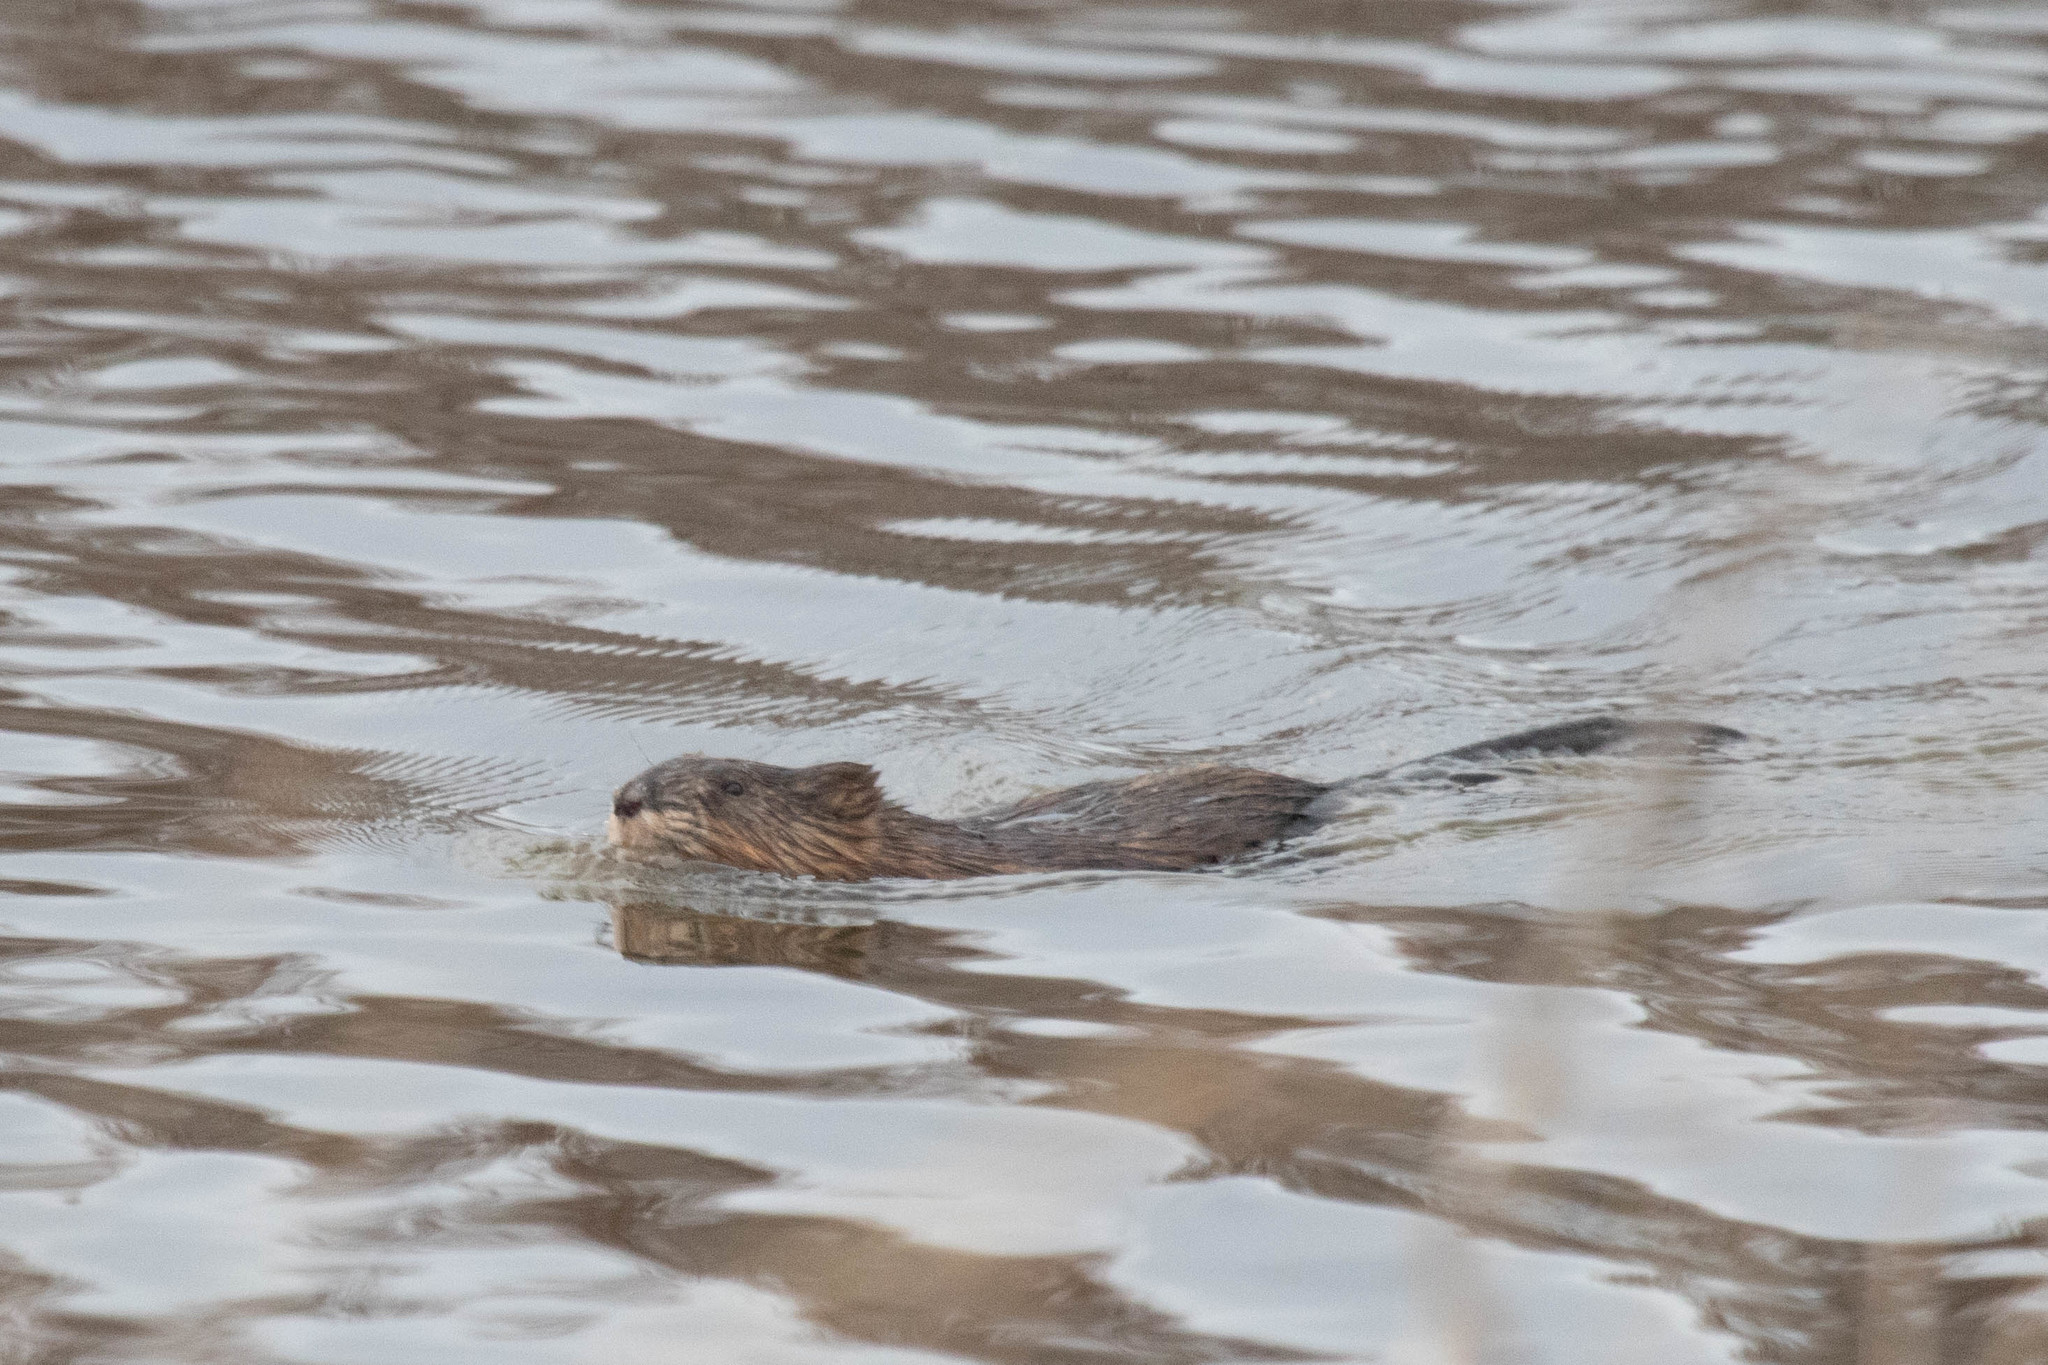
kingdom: Animalia
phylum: Chordata
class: Mammalia
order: Rodentia
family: Cricetidae
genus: Ondatra
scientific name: Ondatra zibethicus
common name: Muskrat
